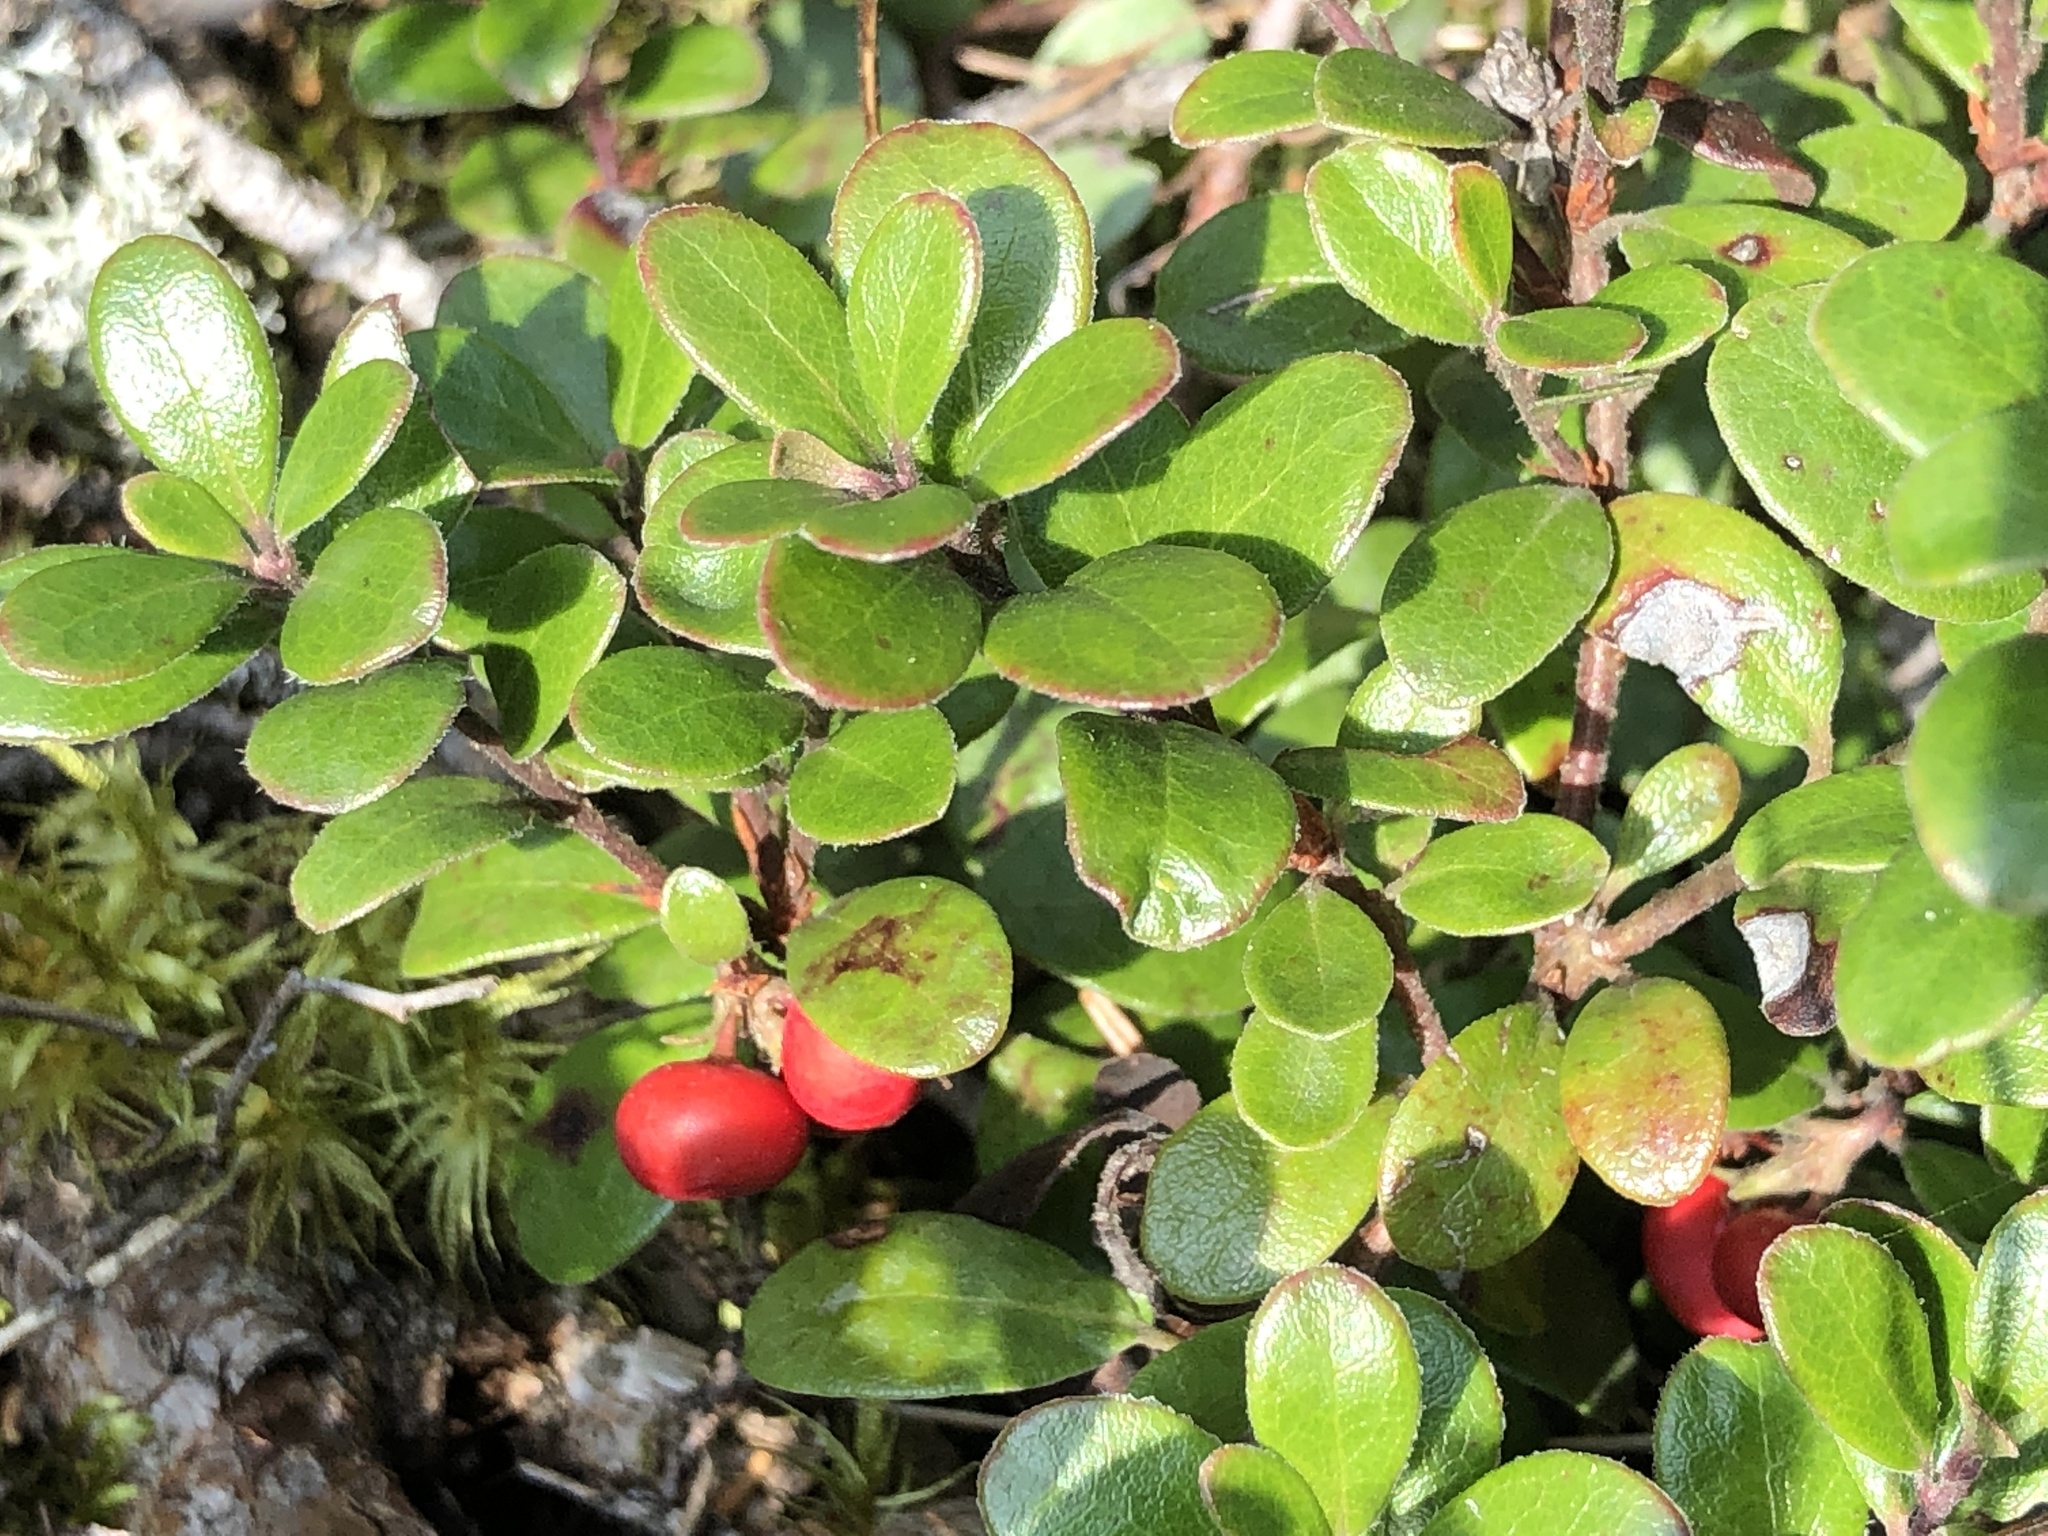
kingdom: Plantae
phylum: Tracheophyta
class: Magnoliopsida
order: Ericales
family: Ericaceae
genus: Arctostaphylos
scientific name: Arctostaphylos uva-ursi
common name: Bearberry
